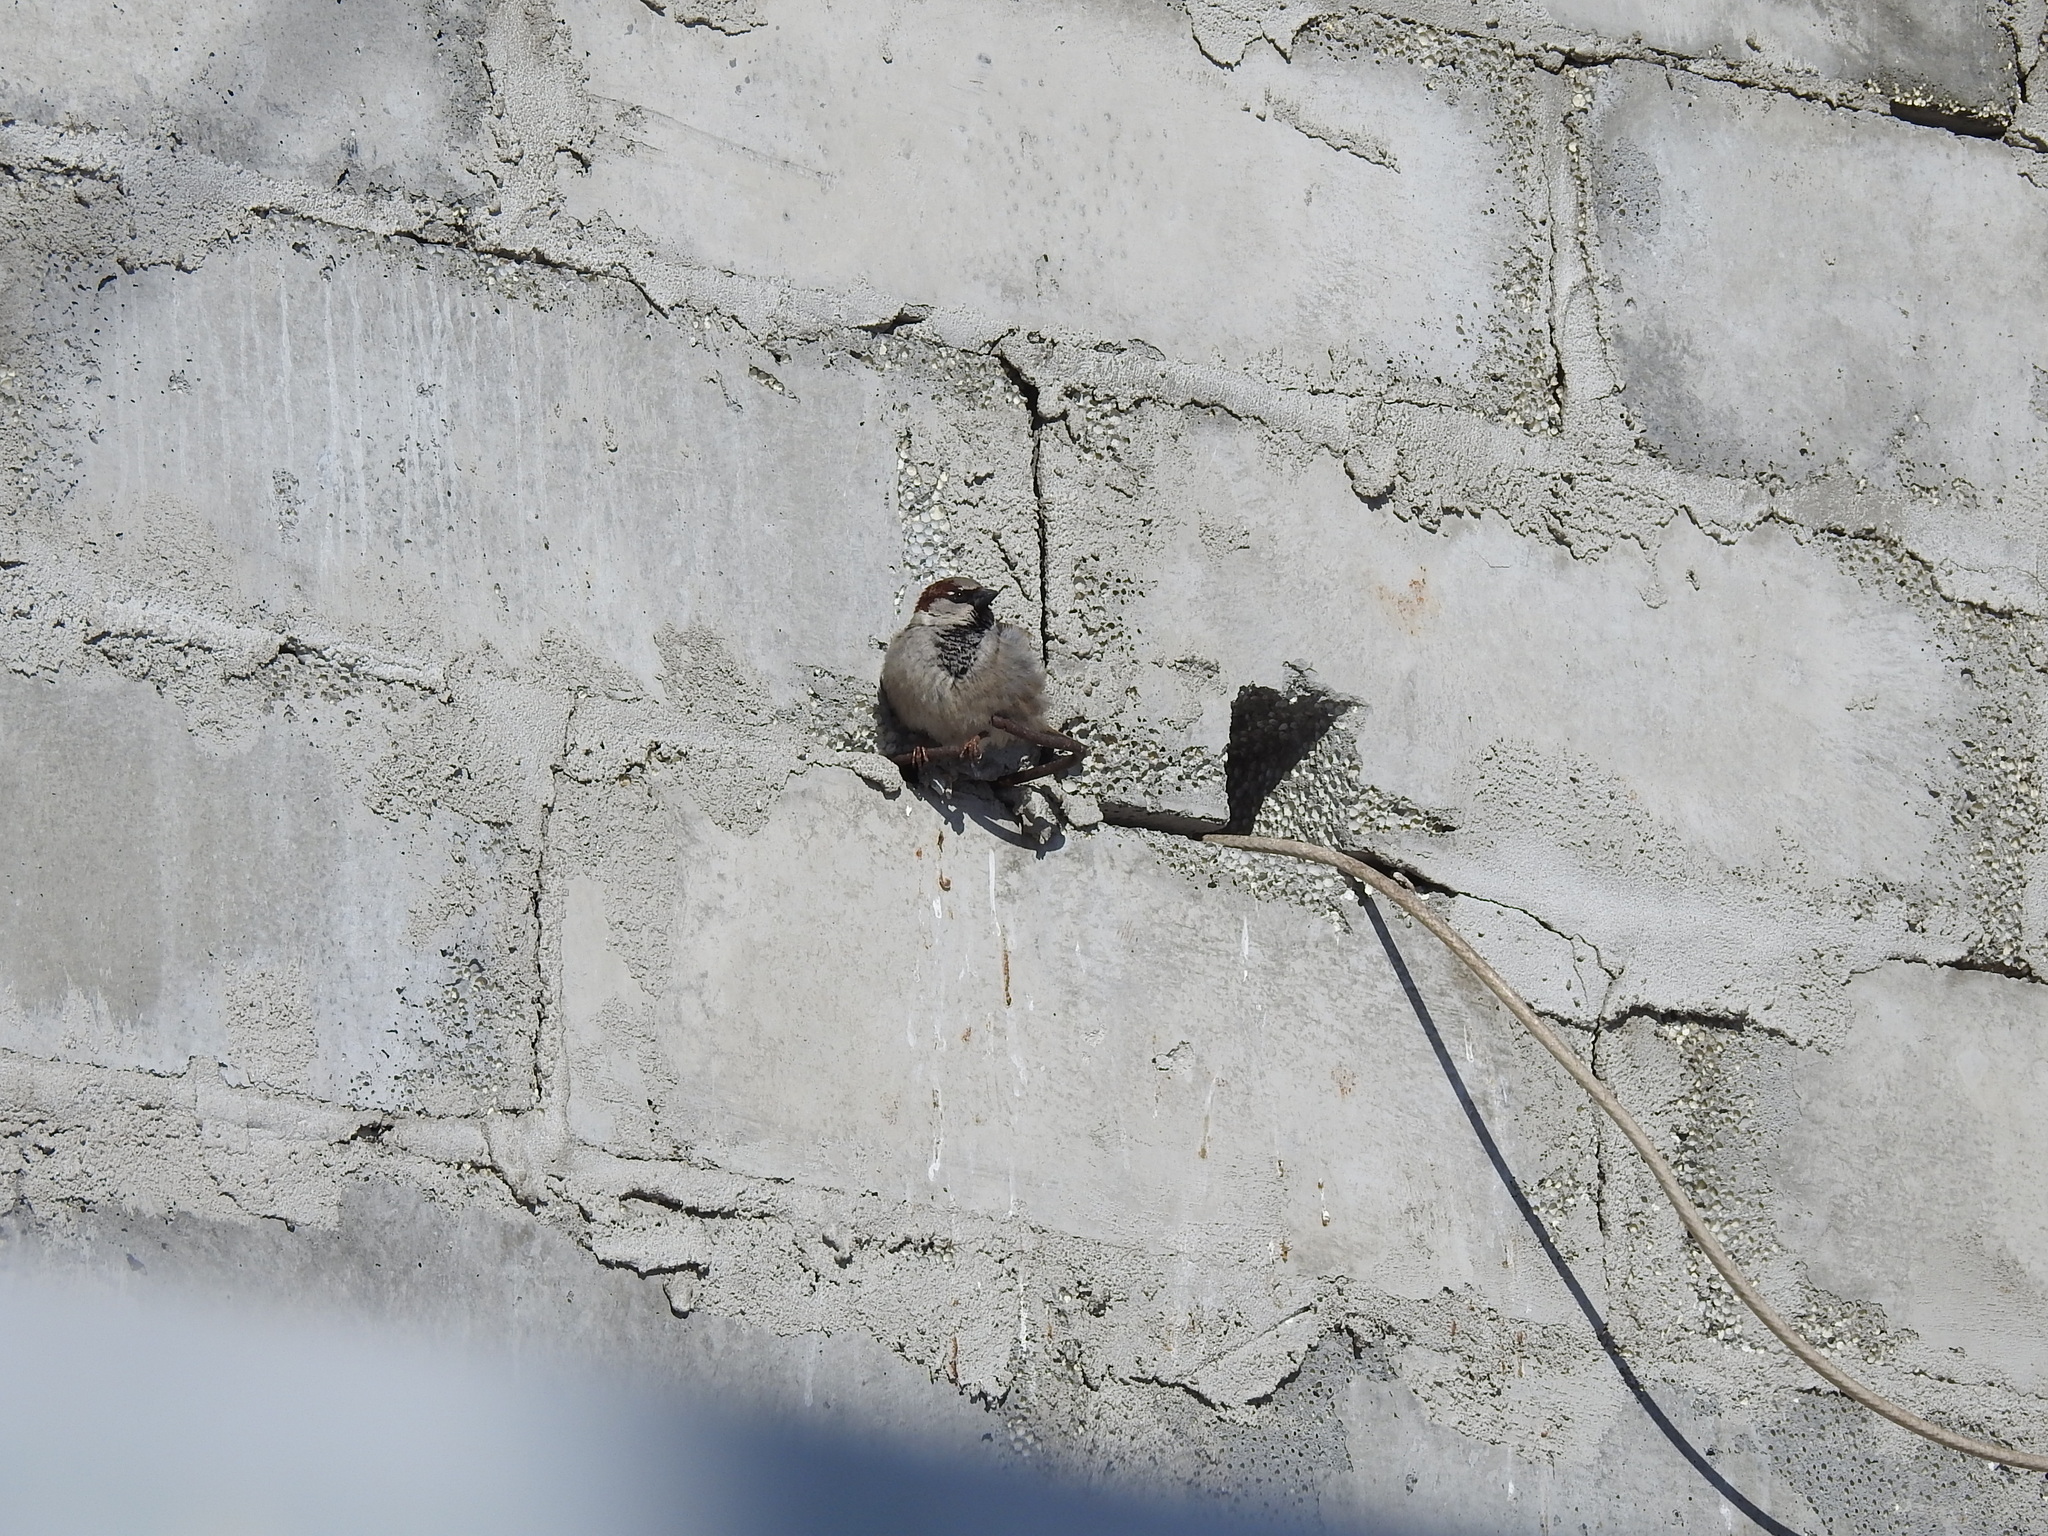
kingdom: Animalia
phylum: Chordata
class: Aves
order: Passeriformes
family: Passeridae
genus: Passer
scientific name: Passer domesticus
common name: House sparrow
